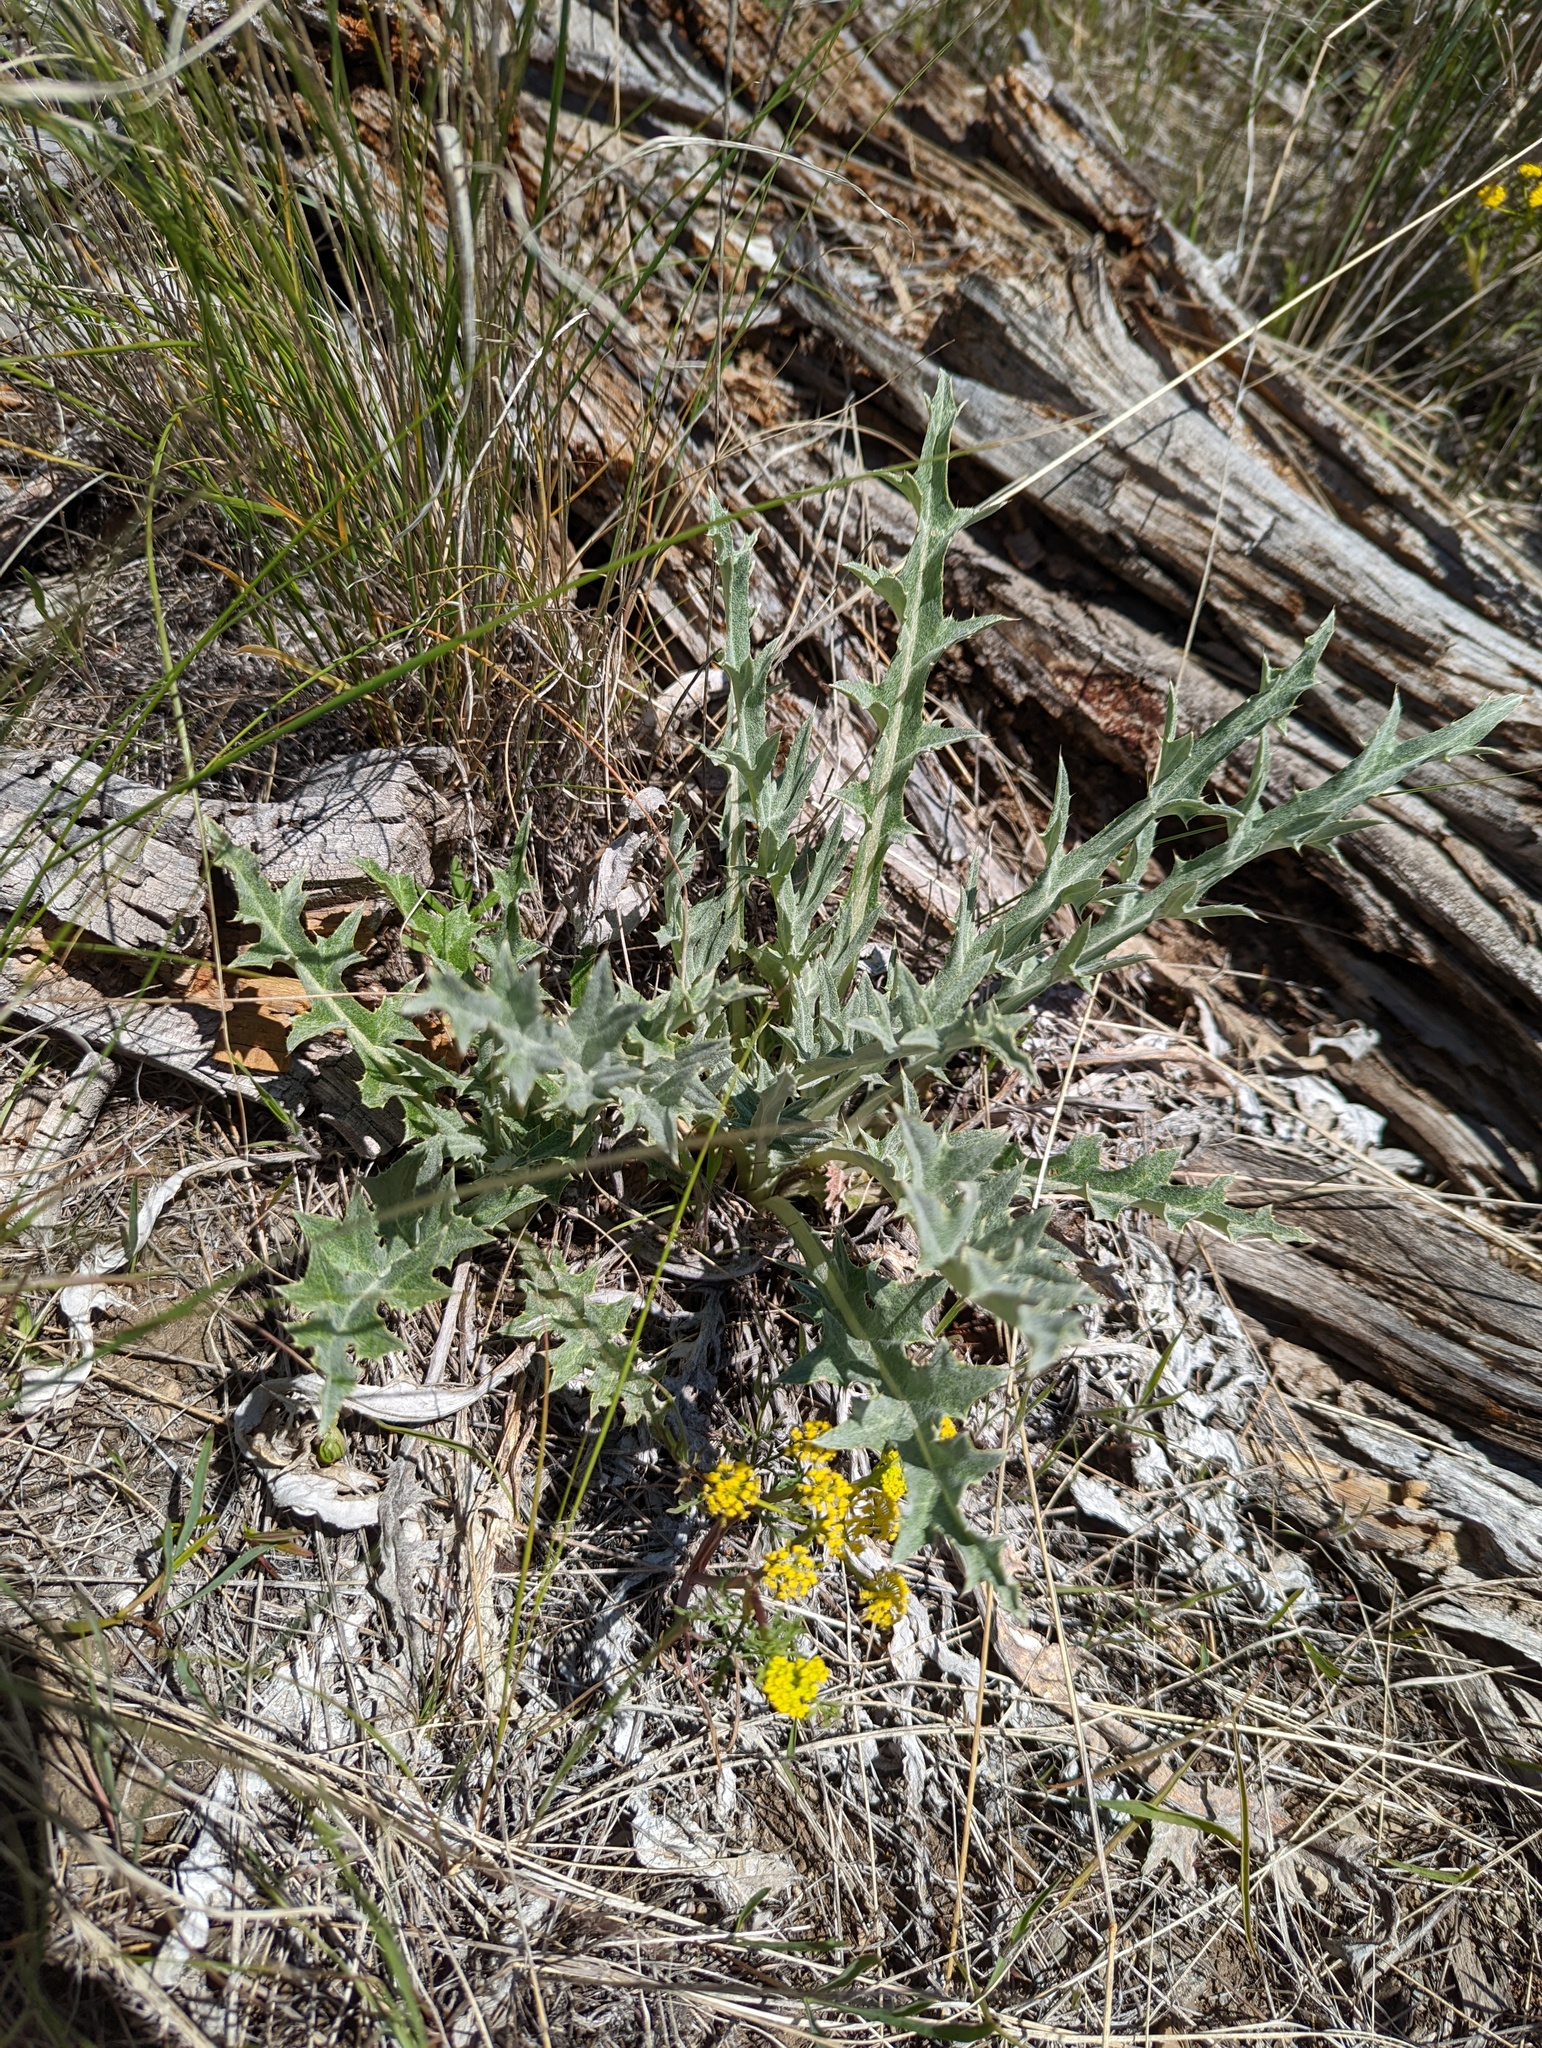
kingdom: Plantae
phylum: Tracheophyta
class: Magnoliopsida
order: Asterales
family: Asteraceae
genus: Cirsium
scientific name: Cirsium undulatum
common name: Pasture thistle
